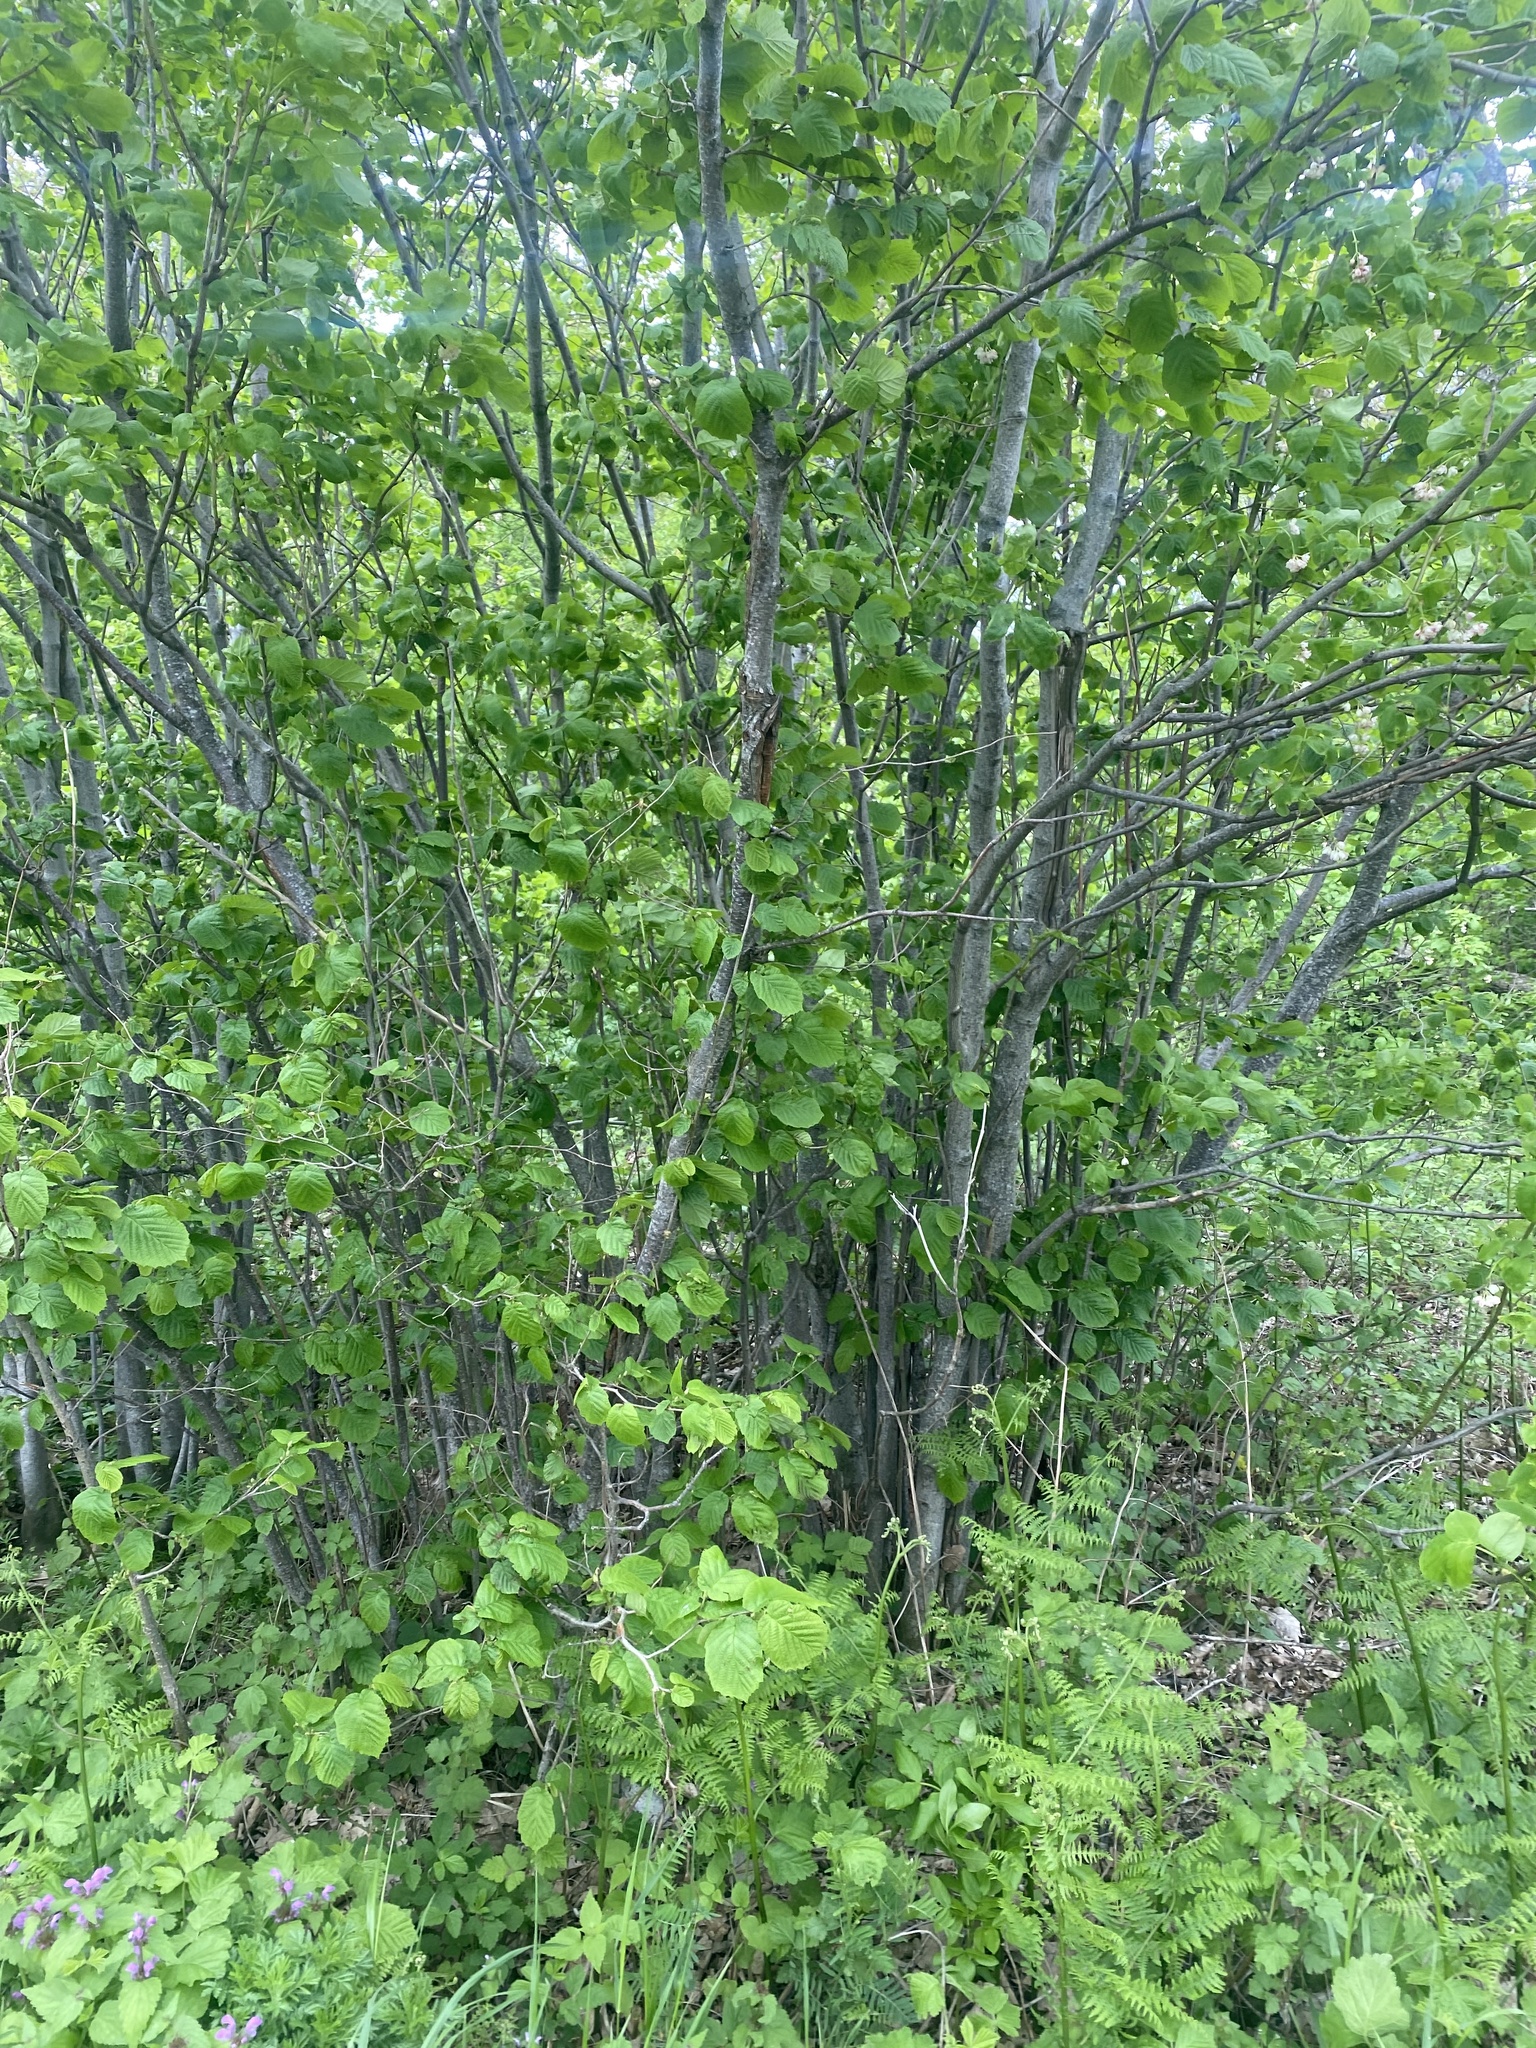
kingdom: Plantae
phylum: Tracheophyta
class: Magnoliopsida
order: Fagales
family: Betulaceae
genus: Corylus
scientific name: Corylus avellana
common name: European hazel
